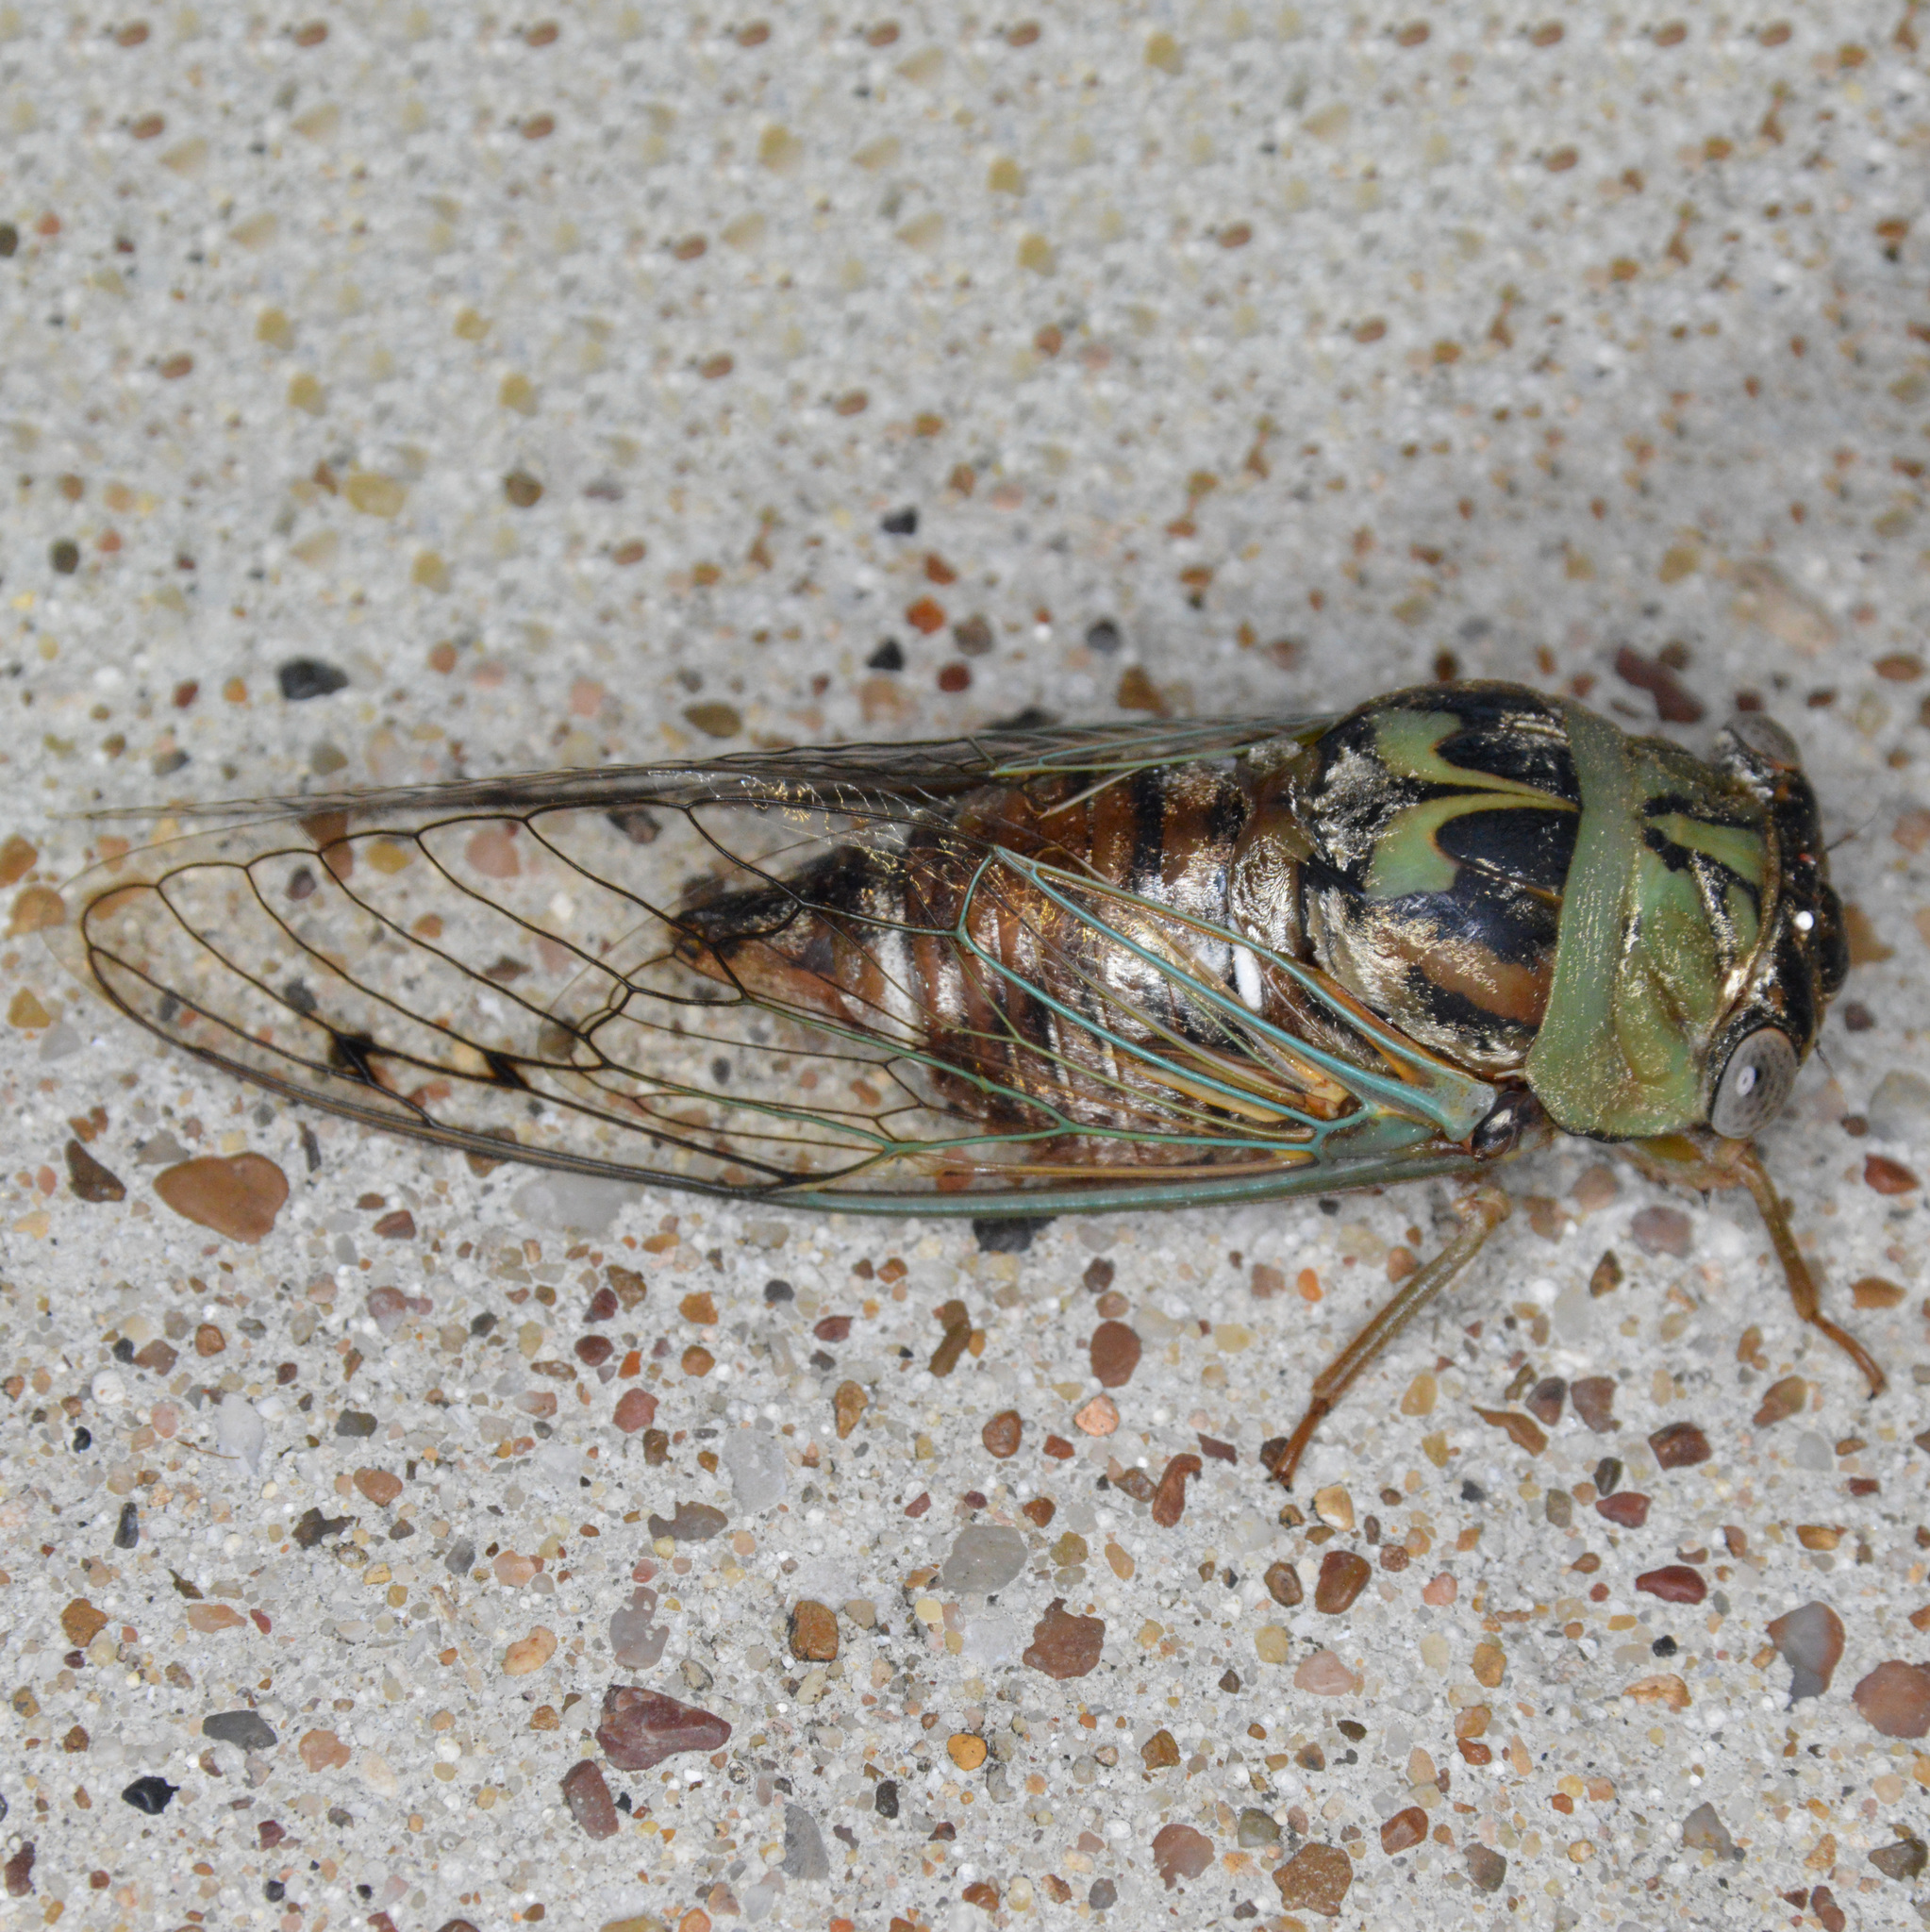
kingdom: Animalia
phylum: Arthropoda
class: Insecta
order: Hemiptera
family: Cicadidae
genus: Megatibicen
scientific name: Megatibicen resh
